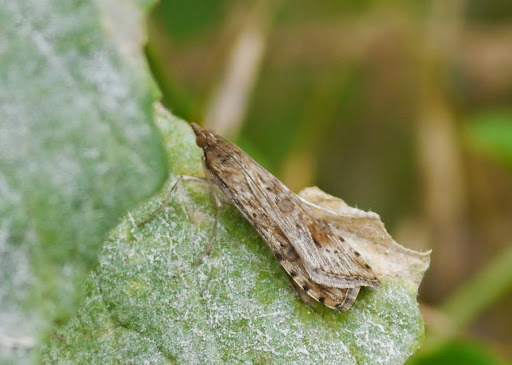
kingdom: Animalia
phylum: Arthropoda
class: Insecta
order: Lepidoptera
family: Crambidae
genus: Nomophila
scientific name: Nomophila nearctica
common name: American rush veneer
